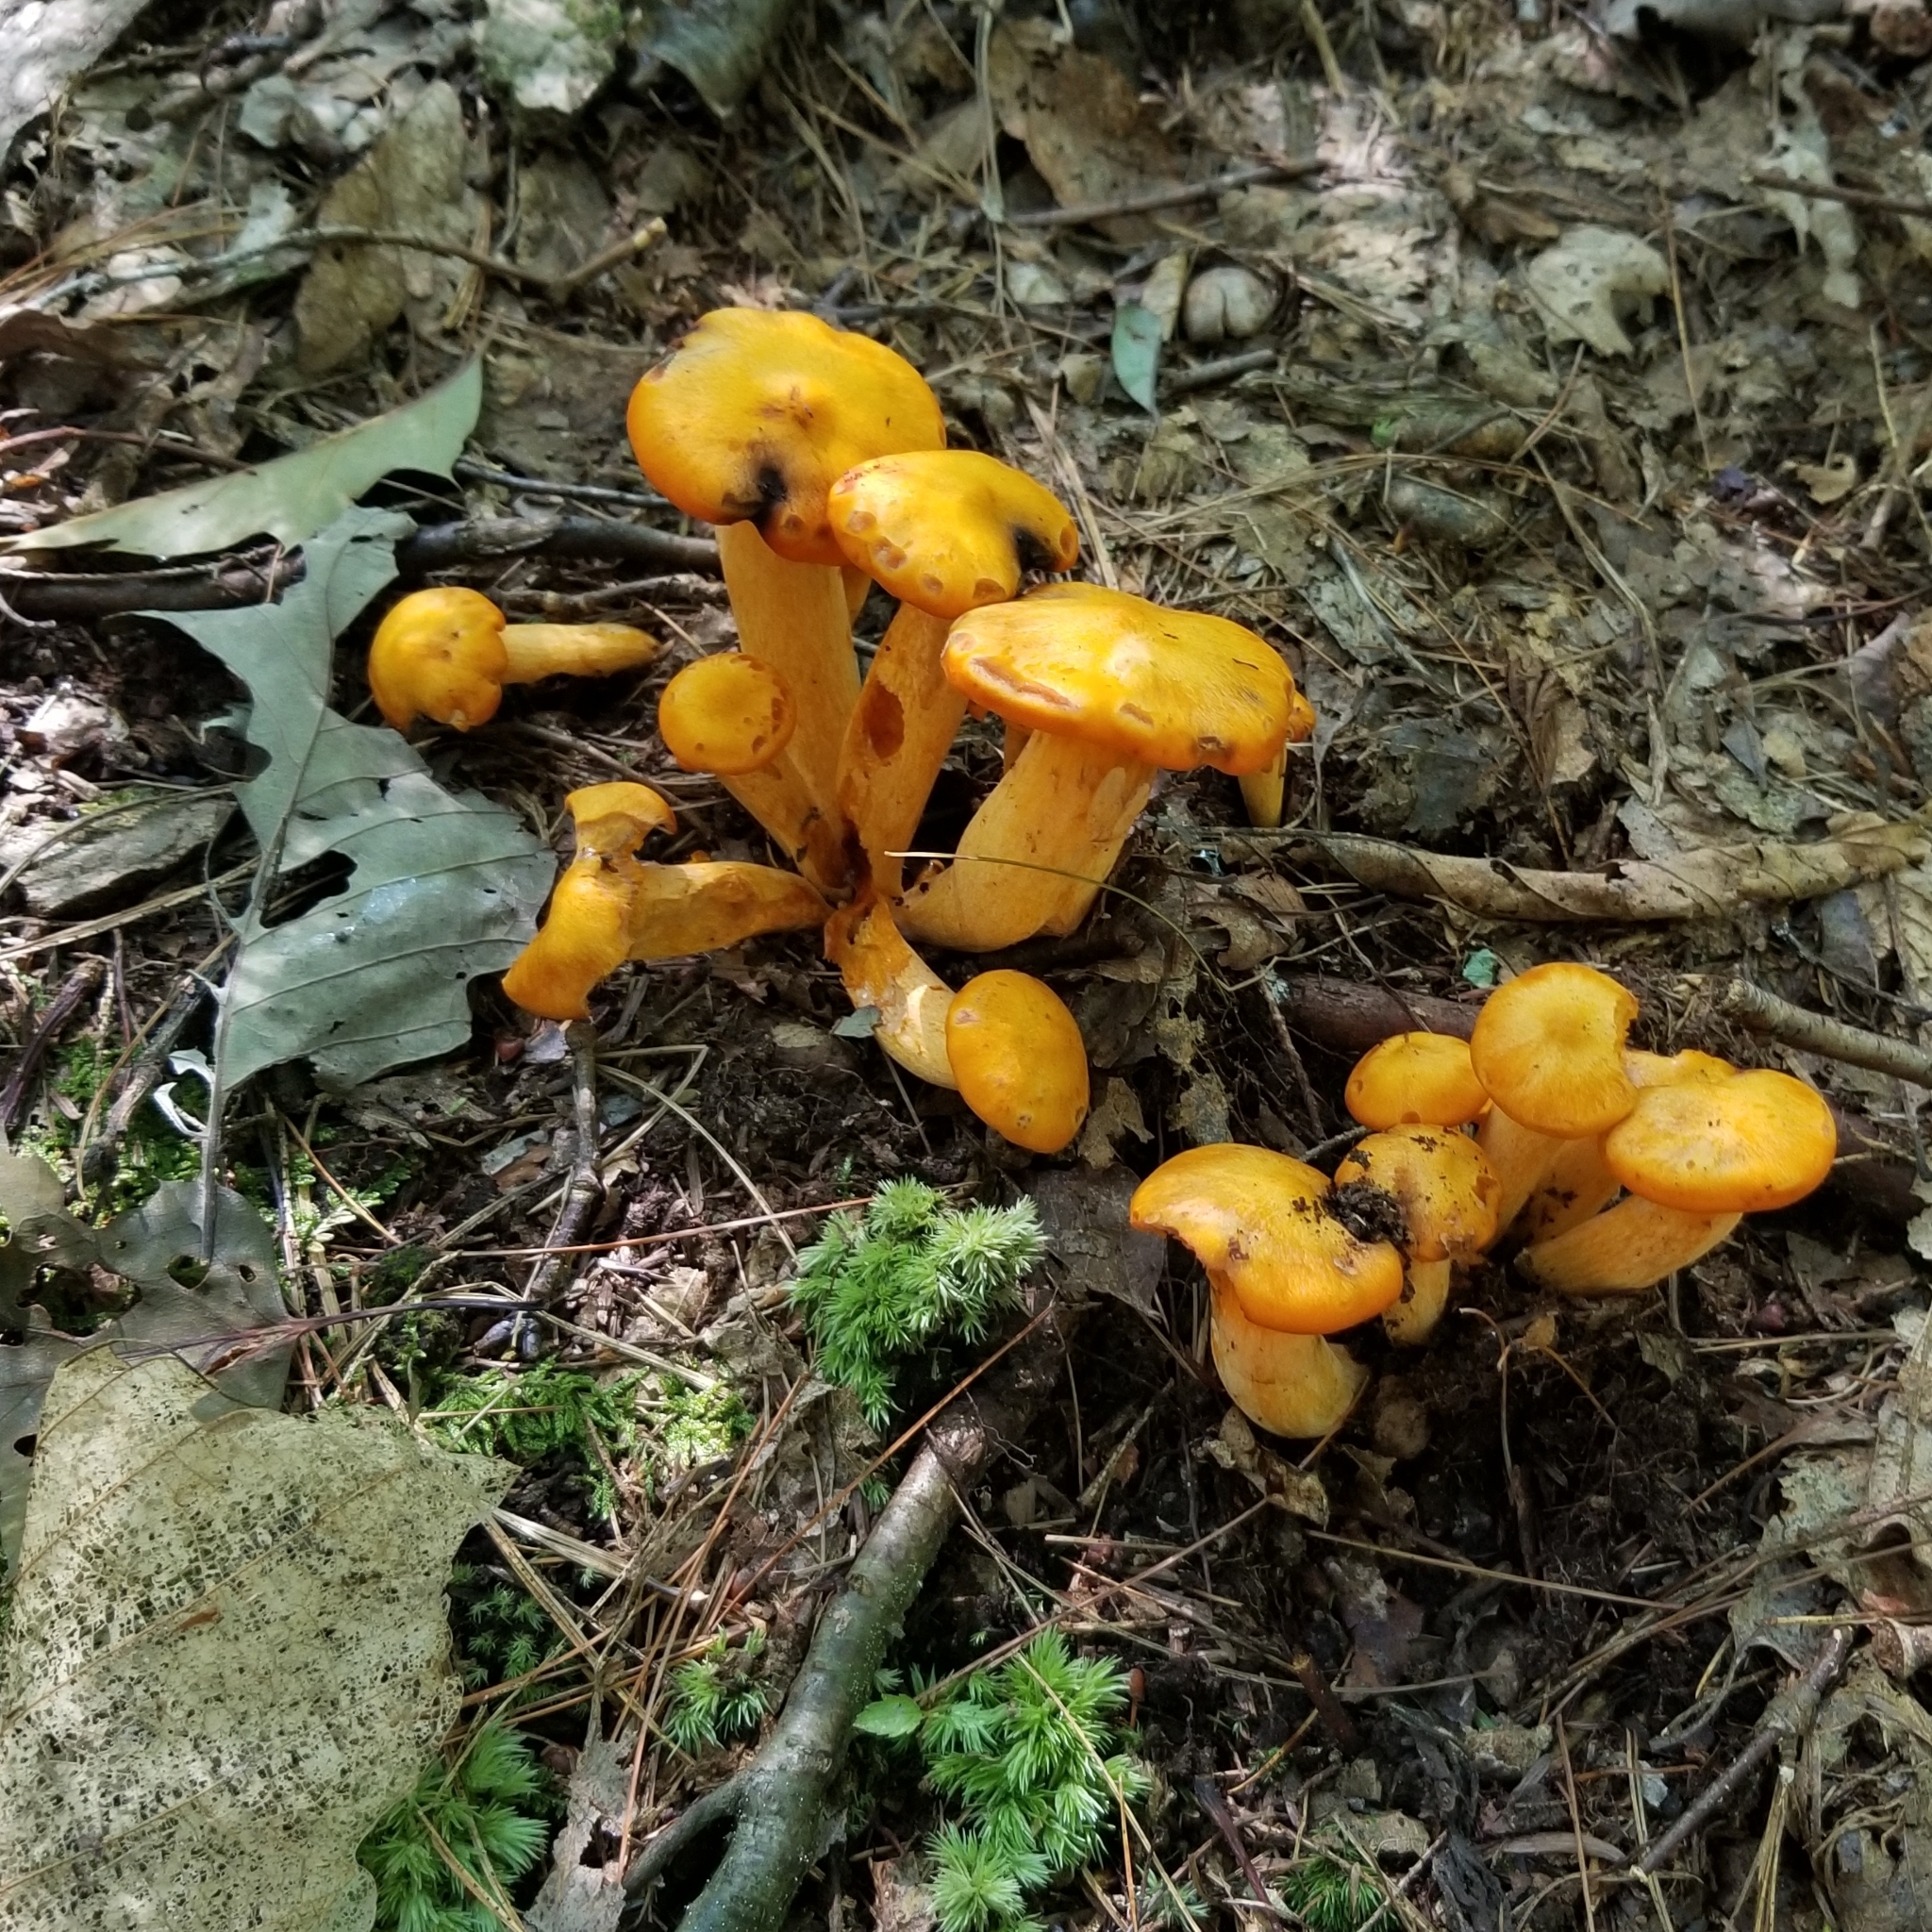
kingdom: Fungi
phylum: Basidiomycota
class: Agaricomycetes
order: Agaricales
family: Omphalotaceae
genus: Omphalotus
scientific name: Omphalotus illudens
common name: Jack o lantern
